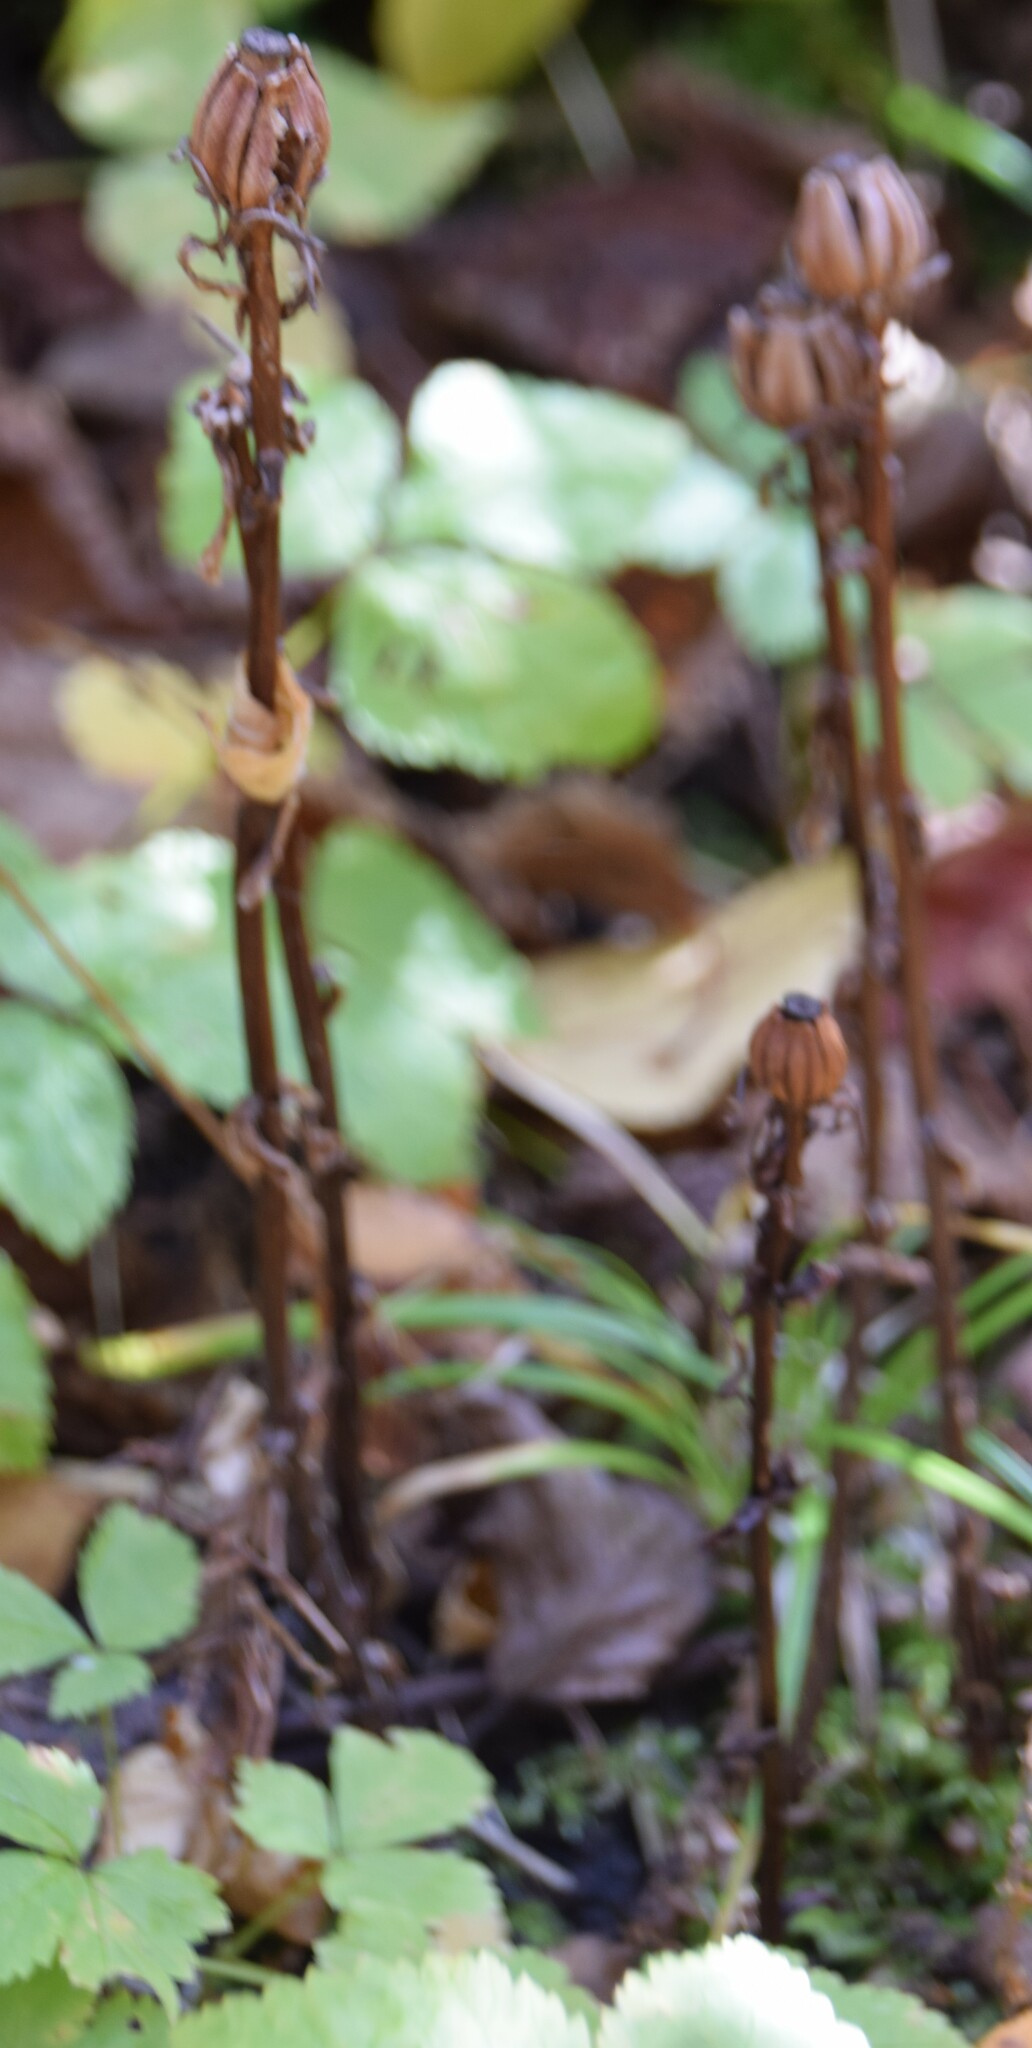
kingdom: Plantae
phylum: Tracheophyta
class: Magnoliopsida
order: Ericales
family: Ericaceae
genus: Monotropa
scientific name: Monotropa uniflora
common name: Convulsion root
